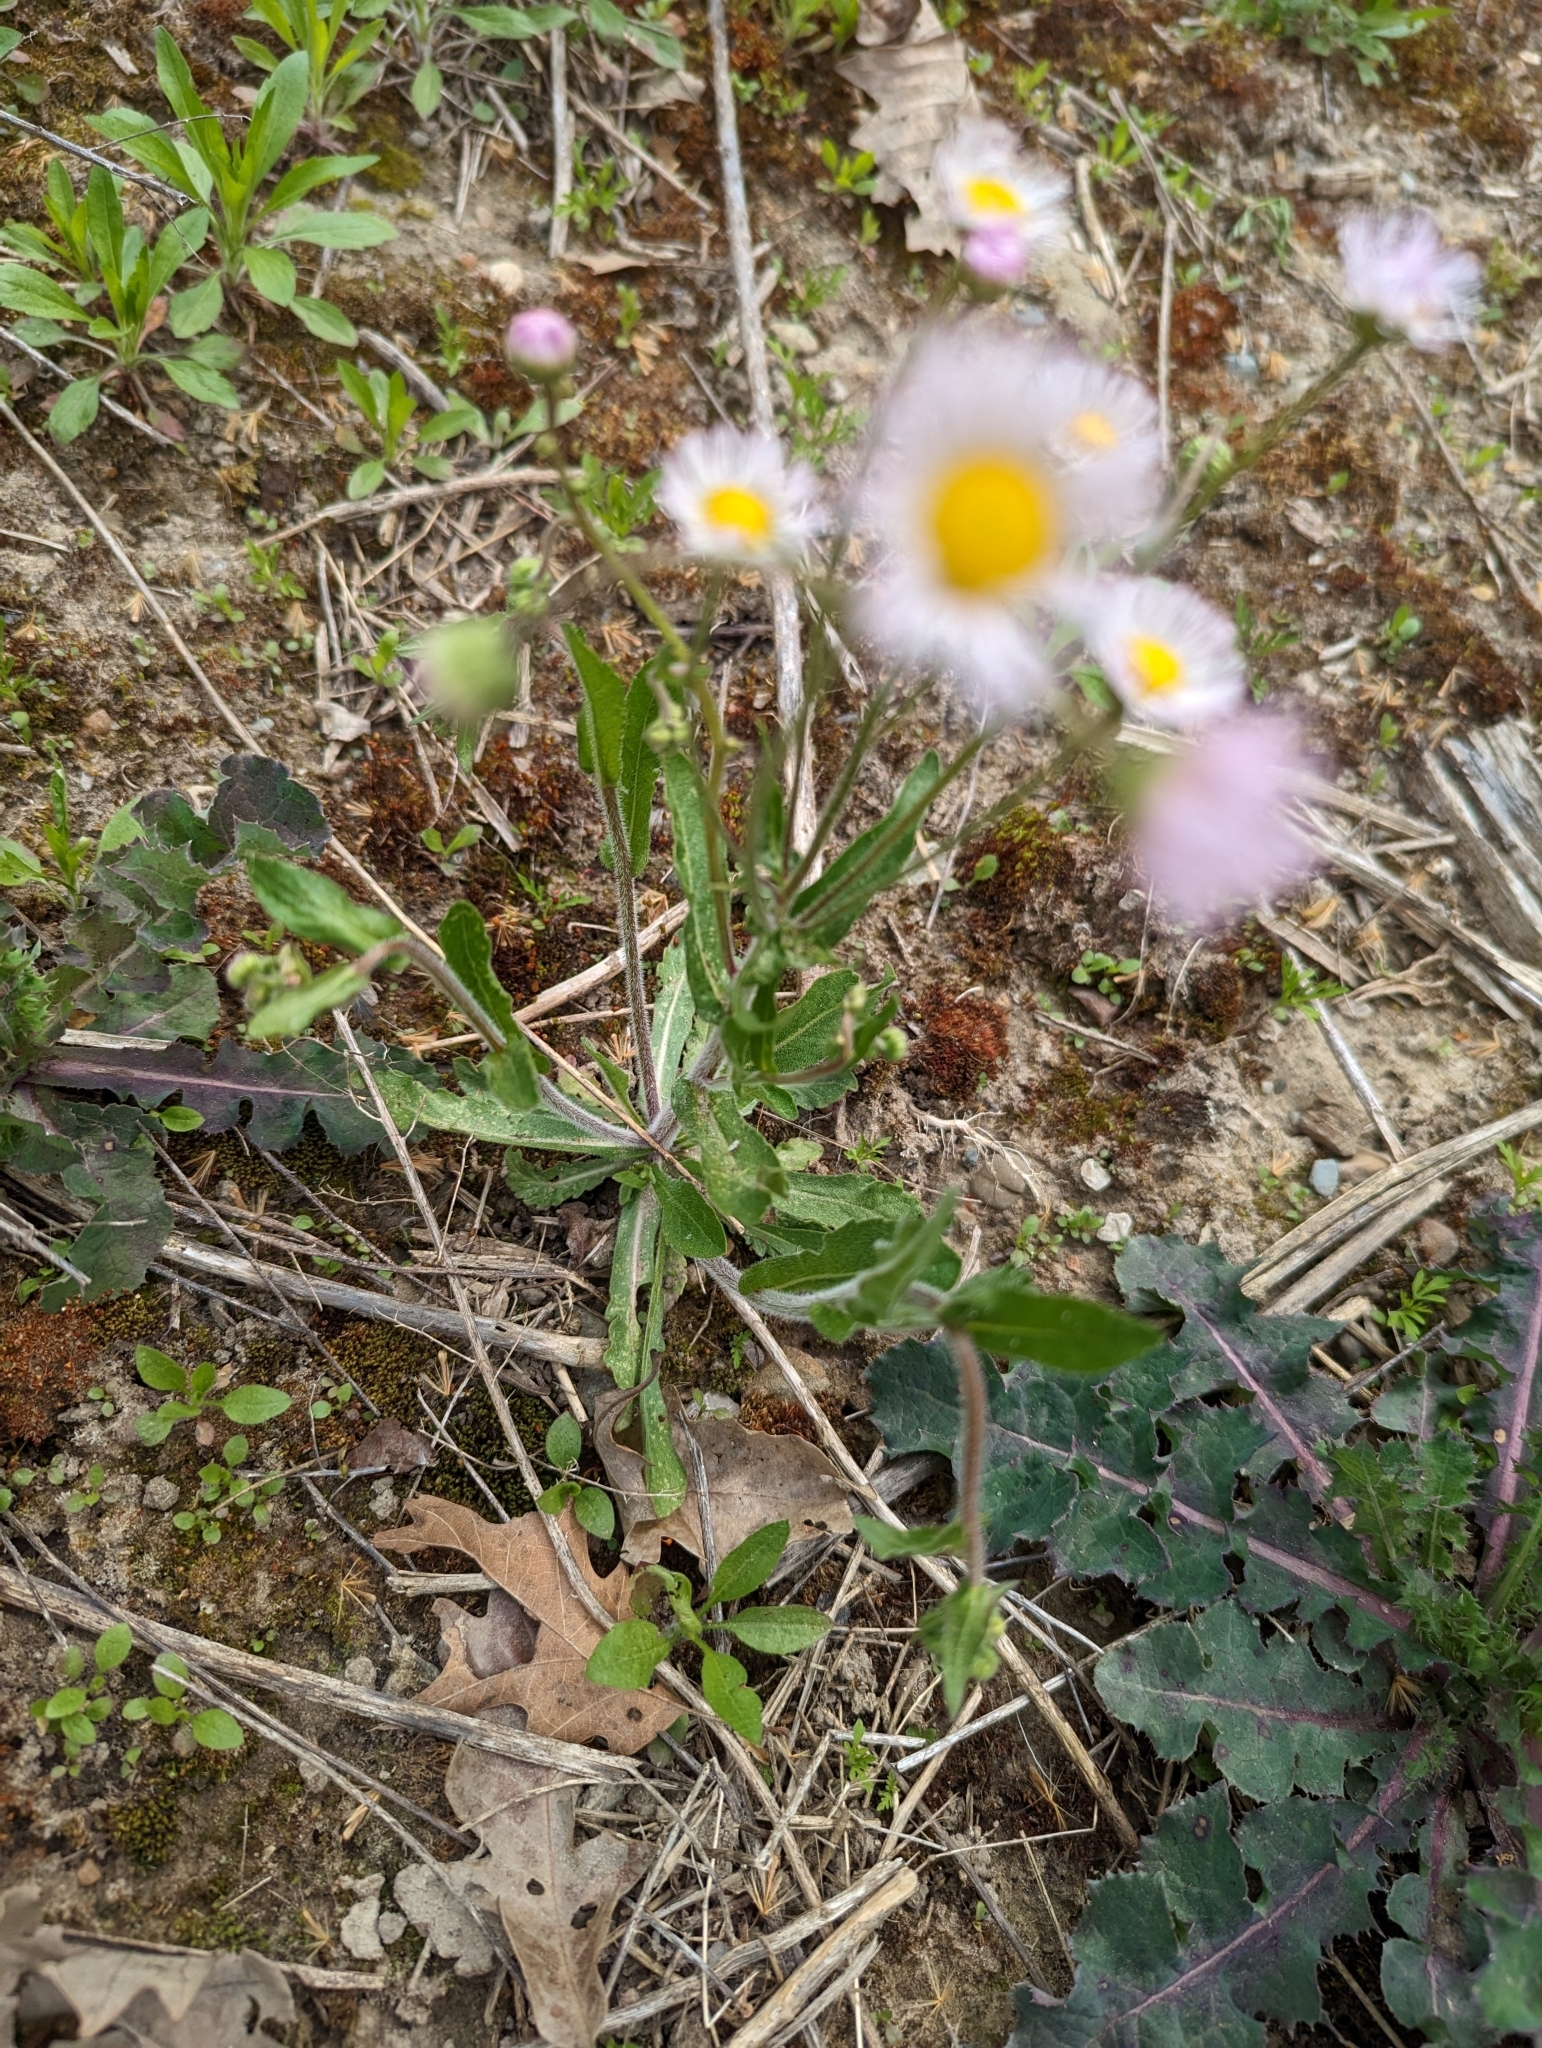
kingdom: Plantae
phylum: Tracheophyta
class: Magnoliopsida
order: Asterales
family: Asteraceae
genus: Erigeron
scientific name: Erigeron philadelphicus
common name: Robin's-plantain
